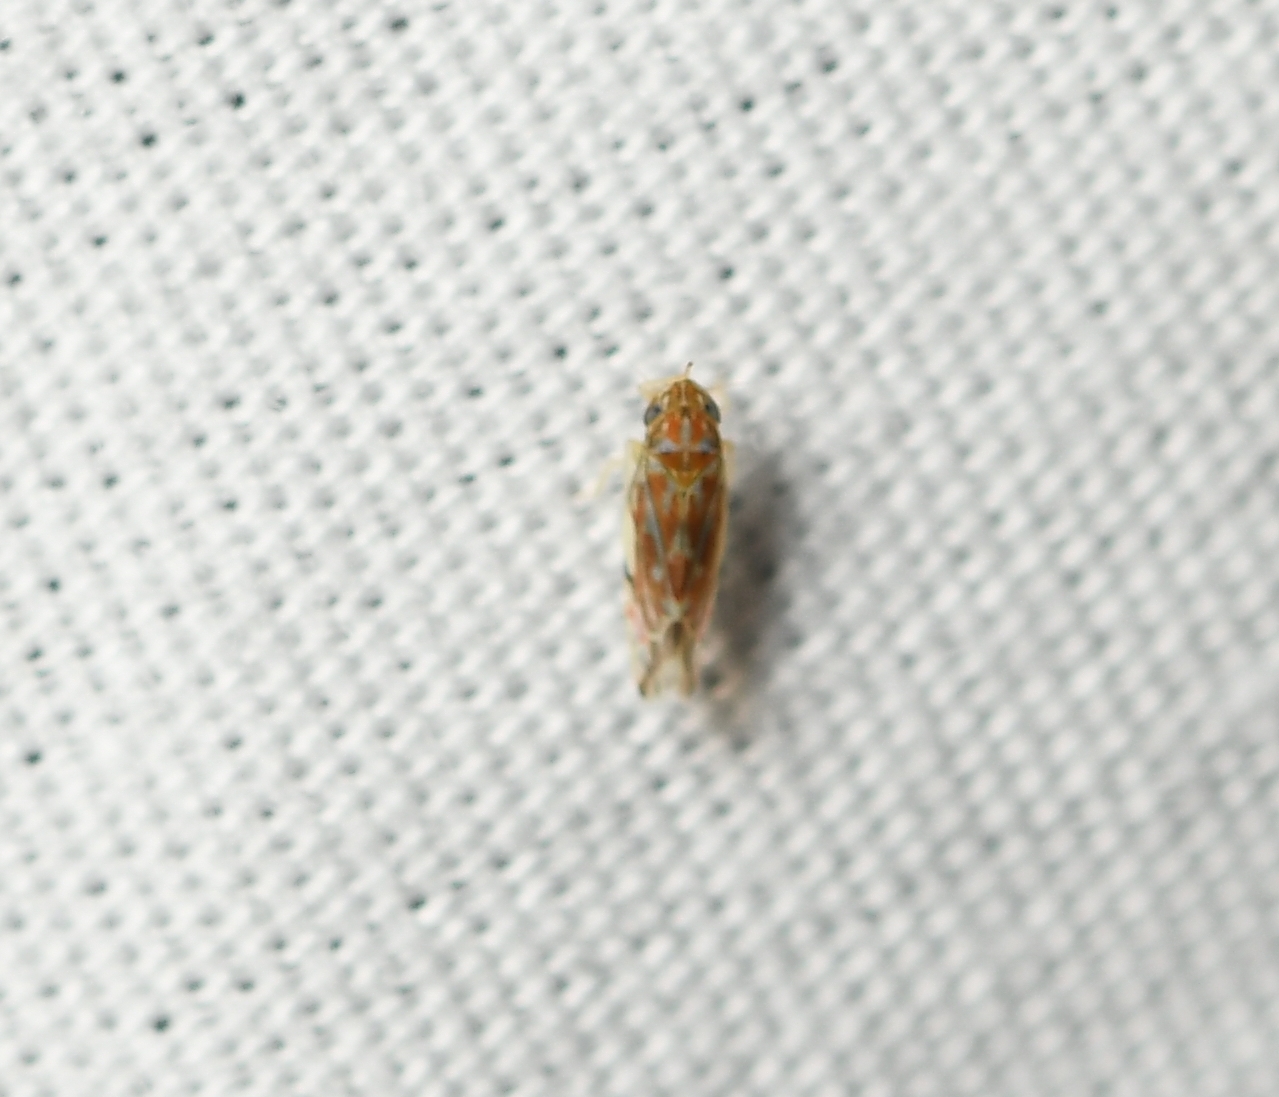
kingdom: Animalia
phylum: Arthropoda
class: Insecta
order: Hemiptera
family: Cicadellidae
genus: Erasmoneura
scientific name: Erasmoneura variabilis
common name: Variegated leafhopper
